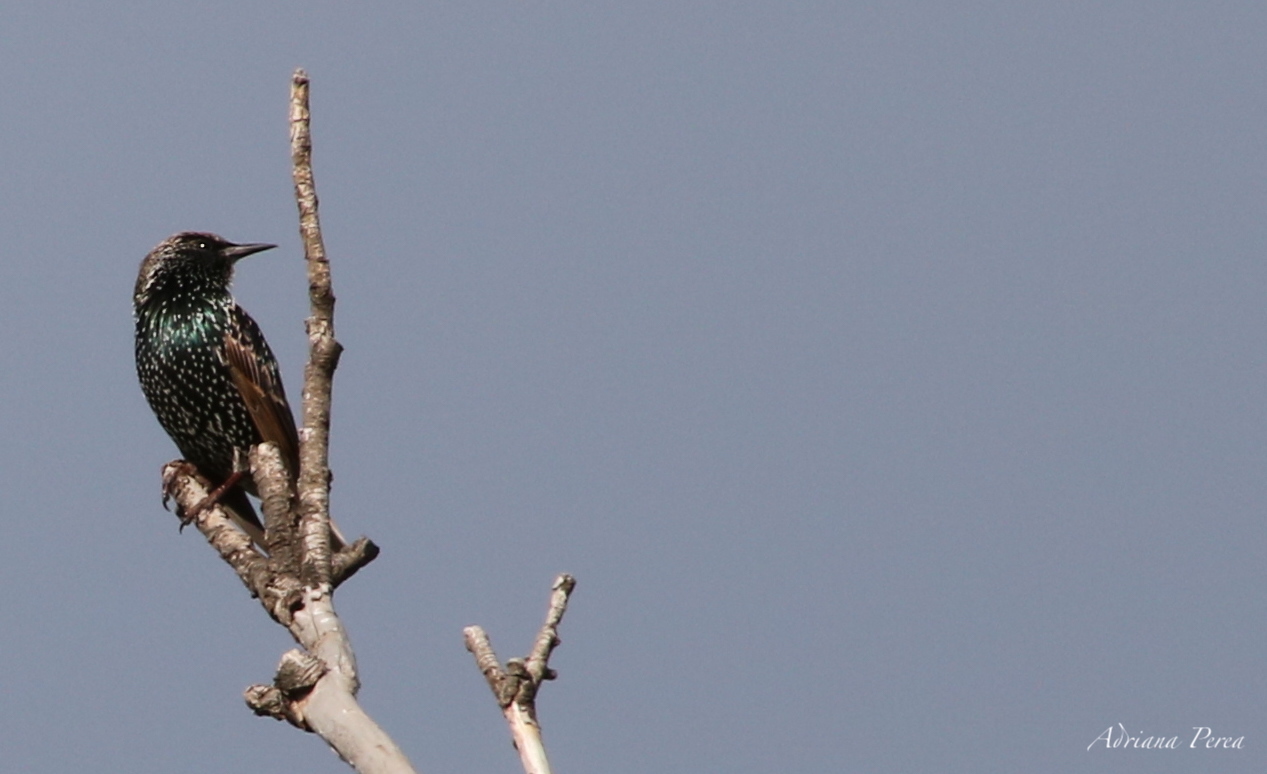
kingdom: Animalia
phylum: Chordata
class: Aves
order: Passeriformes
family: Sturnidae
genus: Sturnus
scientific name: Sturnus vulgaris
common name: Common starling
